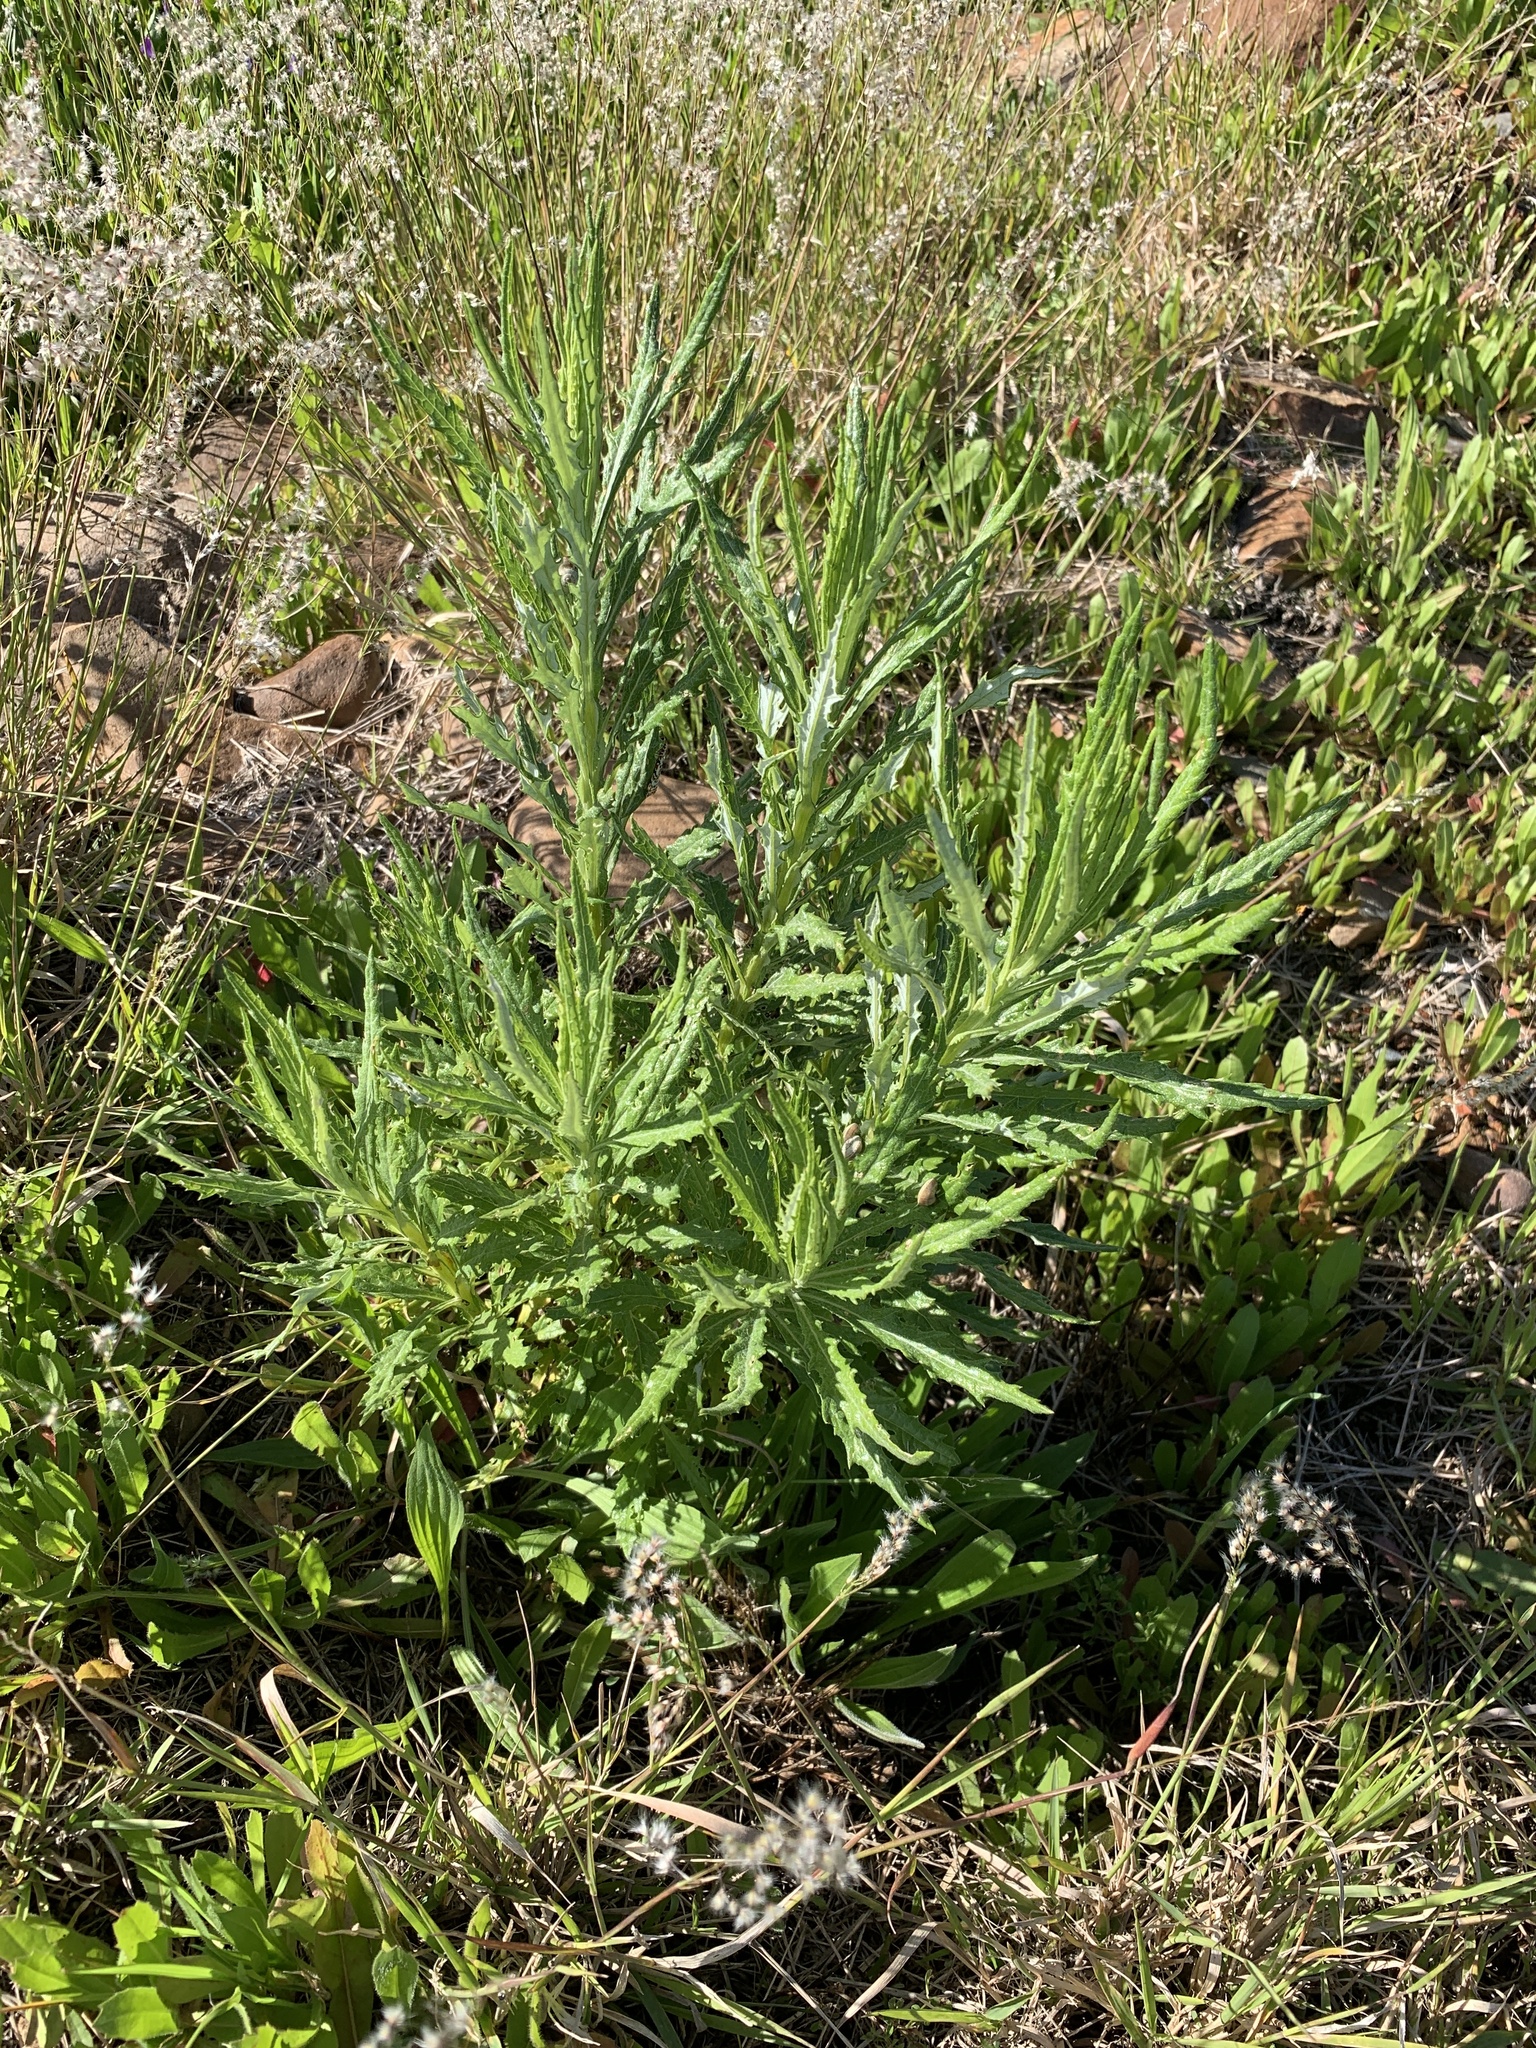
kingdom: Plantae
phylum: Tracheophyta
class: Magnoliopsida
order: Asterales
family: Asteraceae
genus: Senecio
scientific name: Senecio pterophorus
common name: Shoddy ragwort
